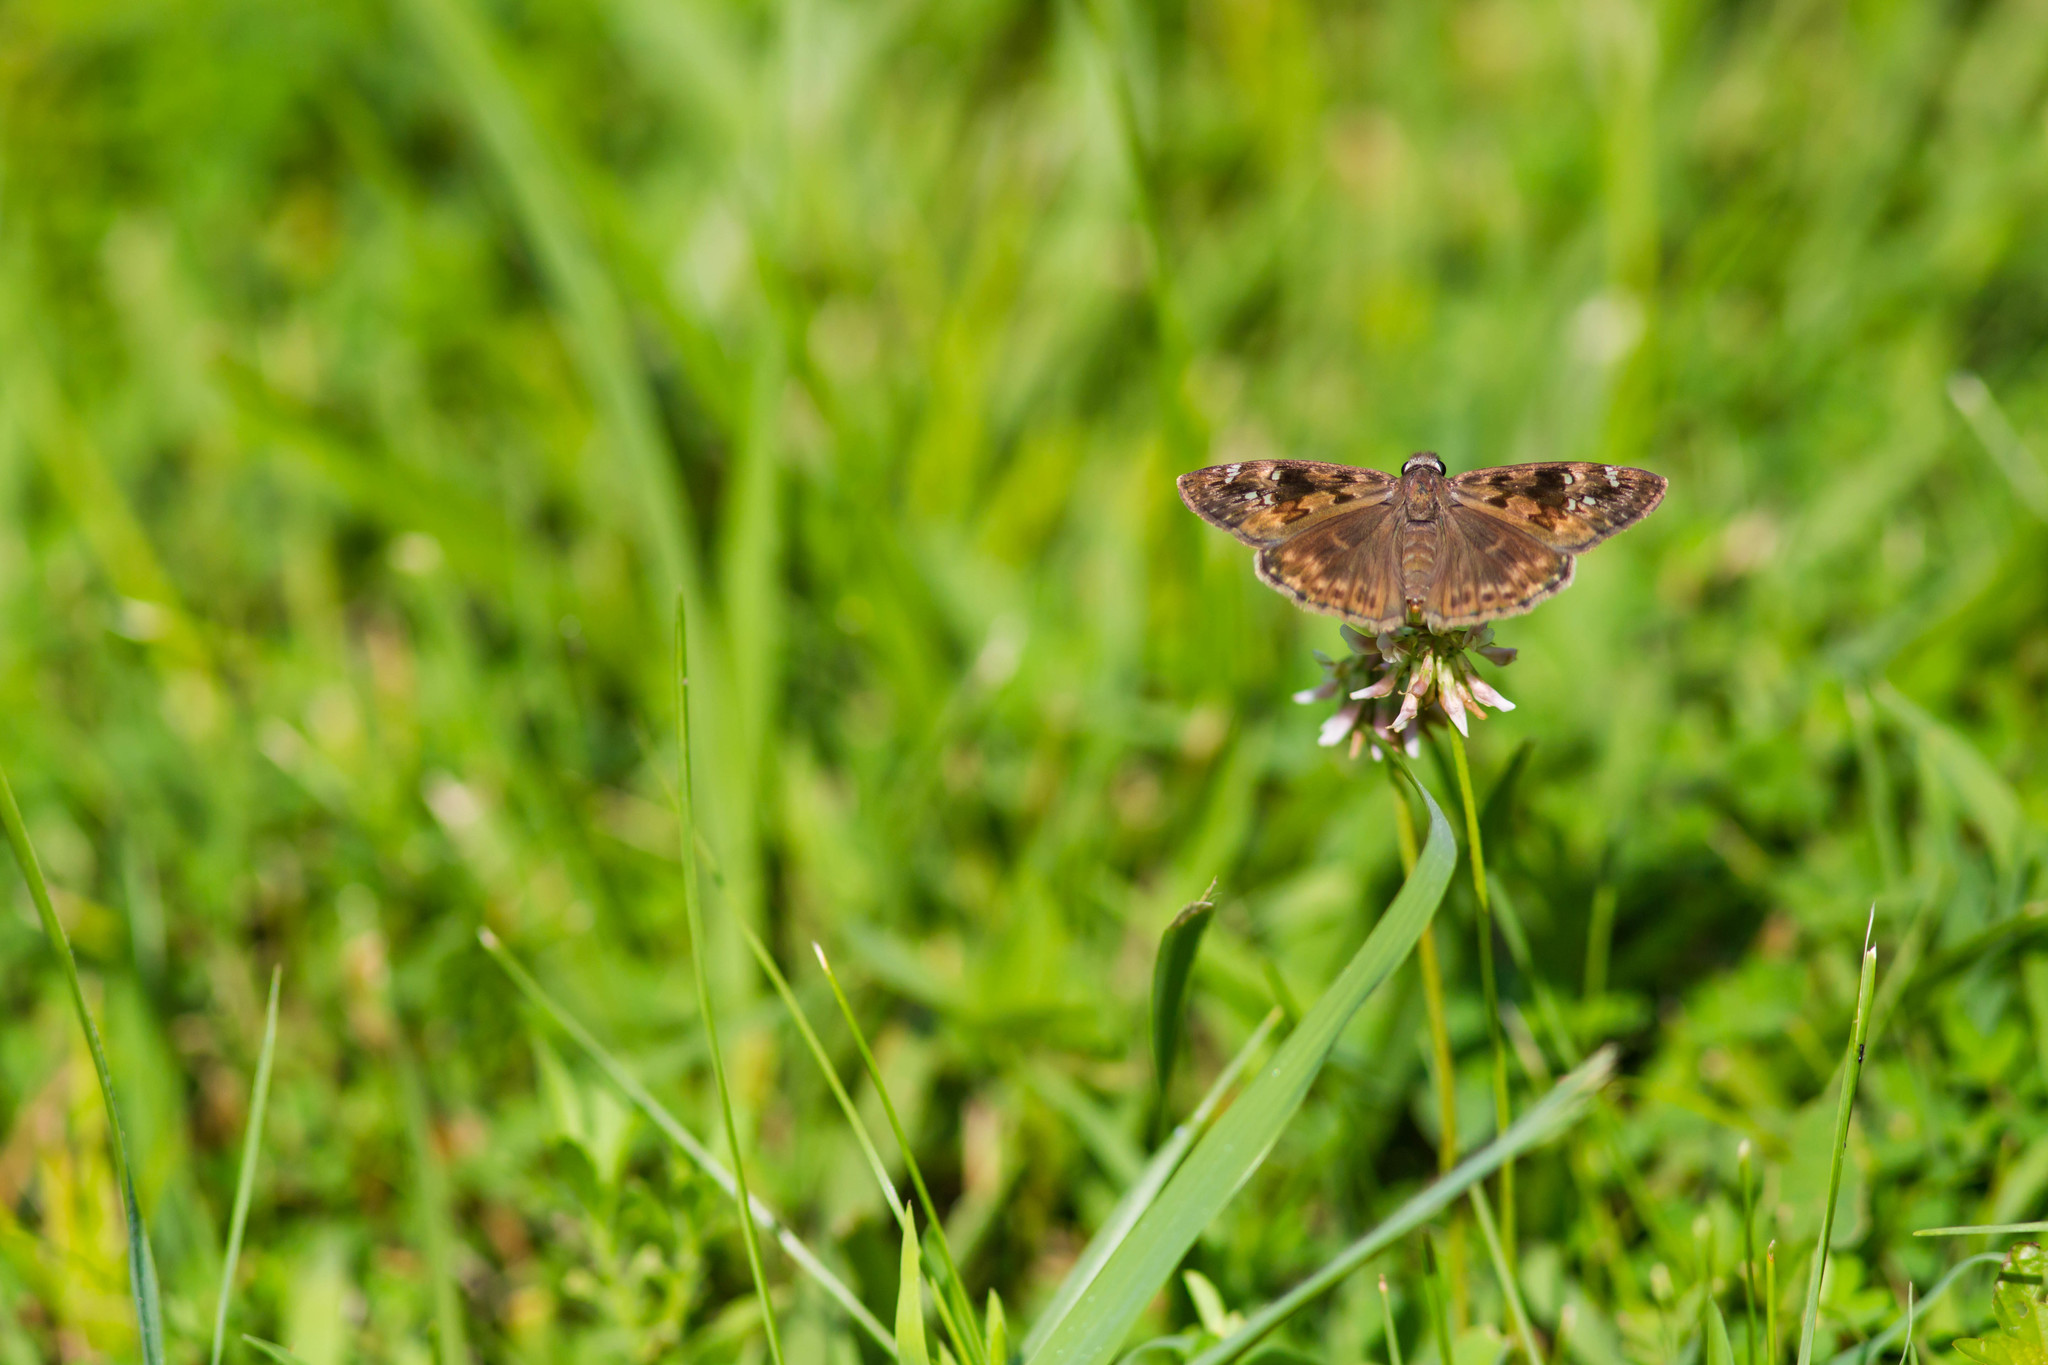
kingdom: Animalia
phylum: Arthropoda
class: Insecta
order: Lepidoptera
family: Hesperiidae
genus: Erynnis
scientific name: Erynnis horatius
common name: Horace's duskywing
